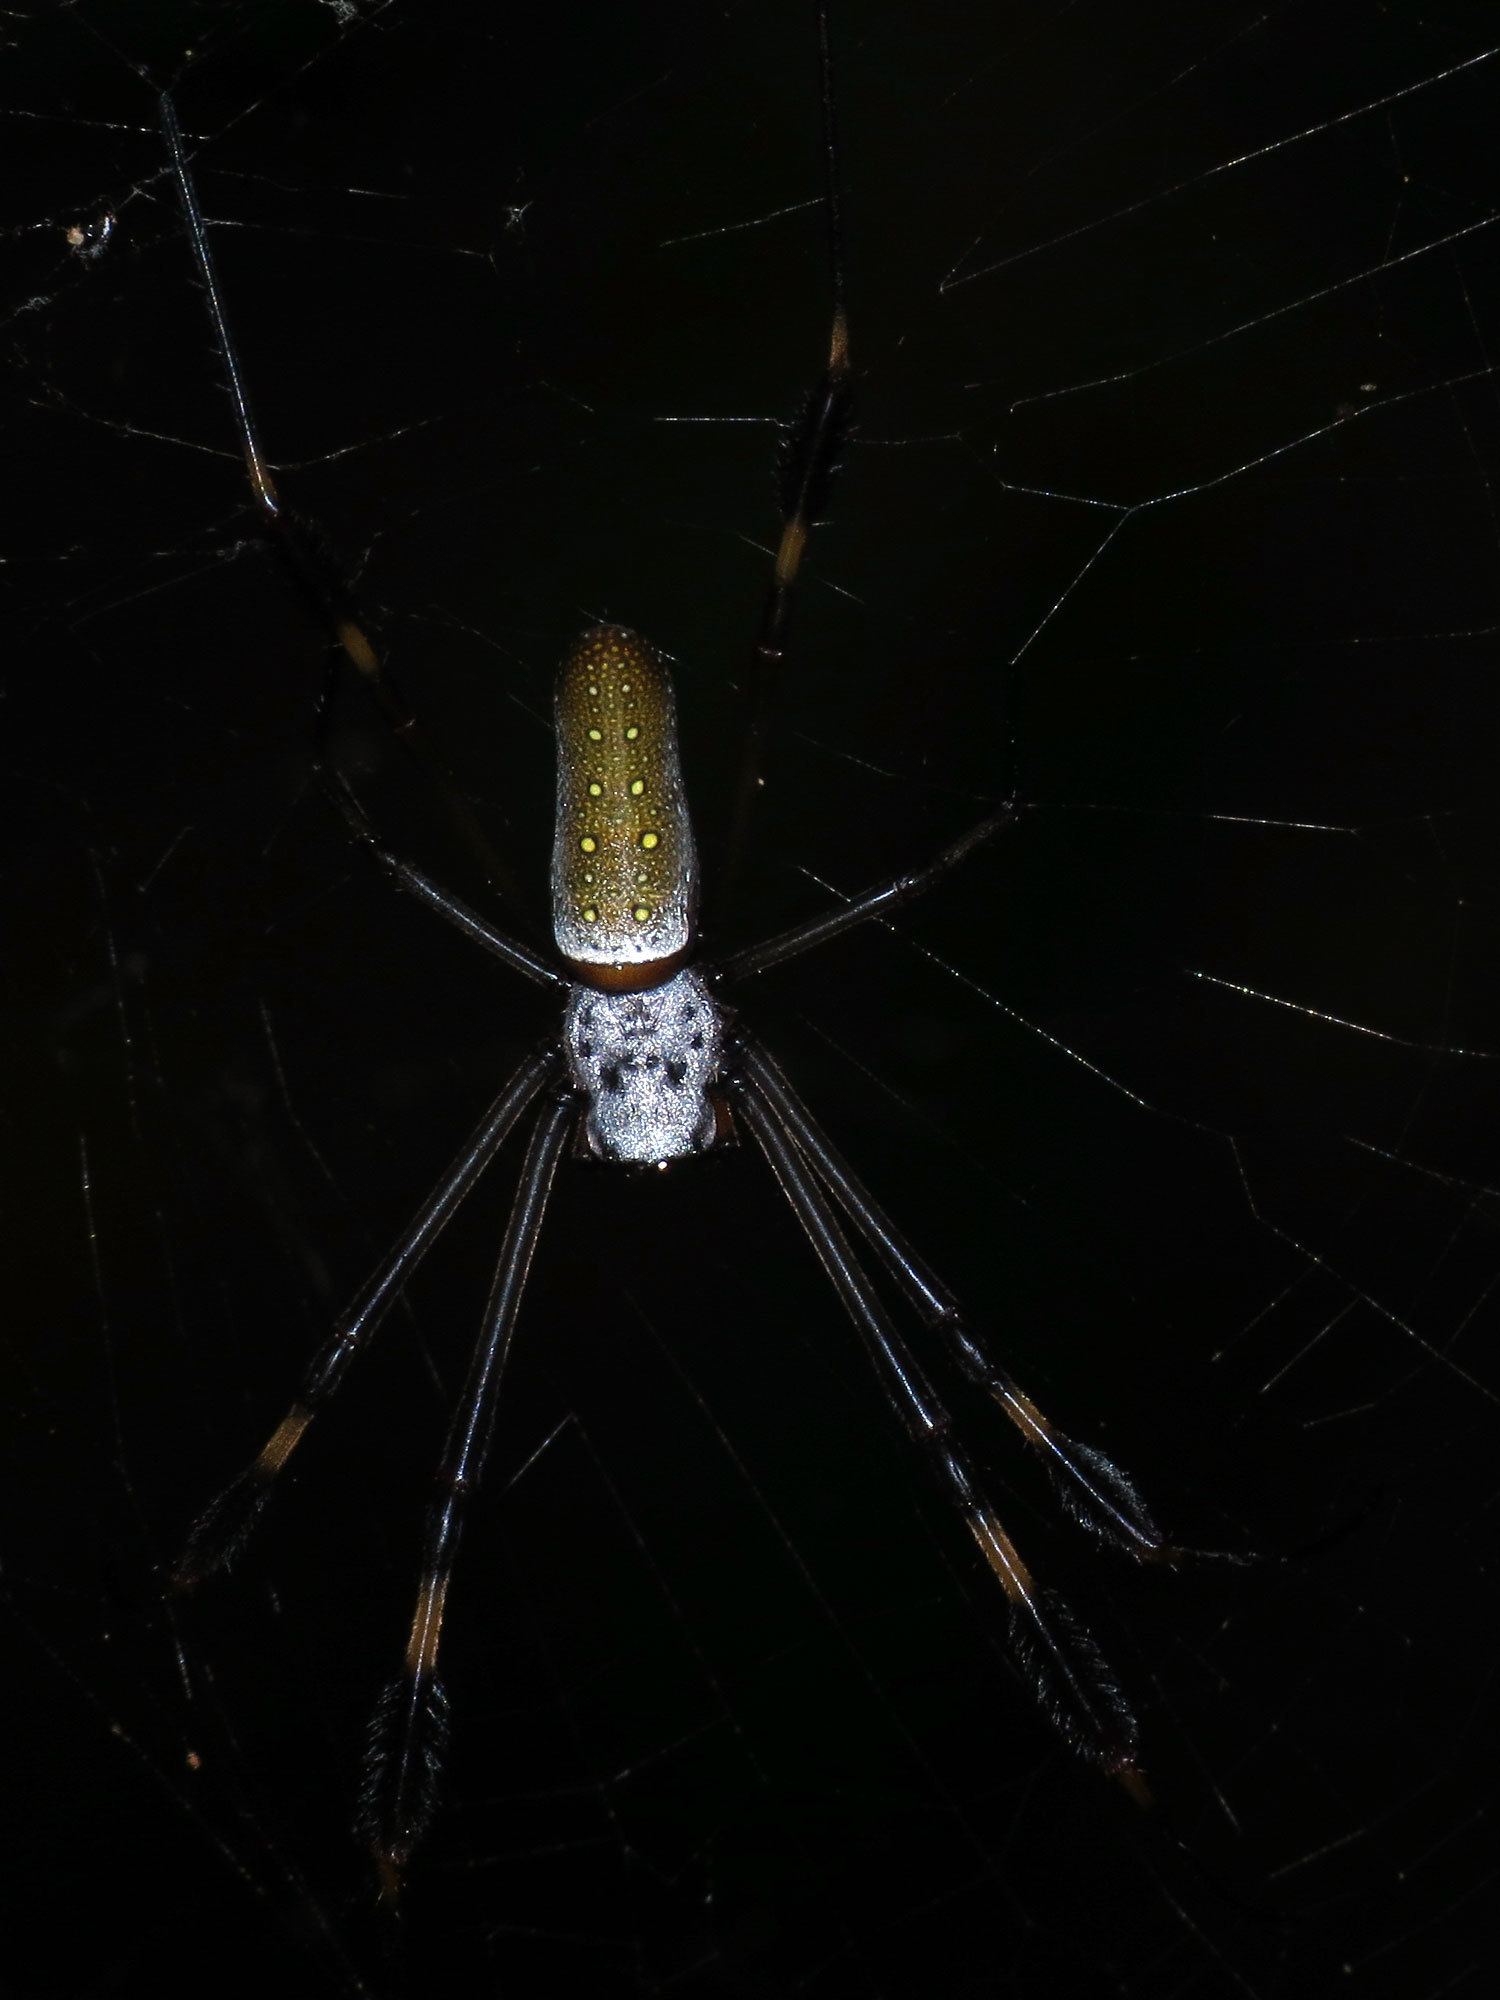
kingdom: Animalia
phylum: Arthropoda
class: Arachnida
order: Araneae
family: Araneidae
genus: Trichonephila
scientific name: Trichonephila clavipes
